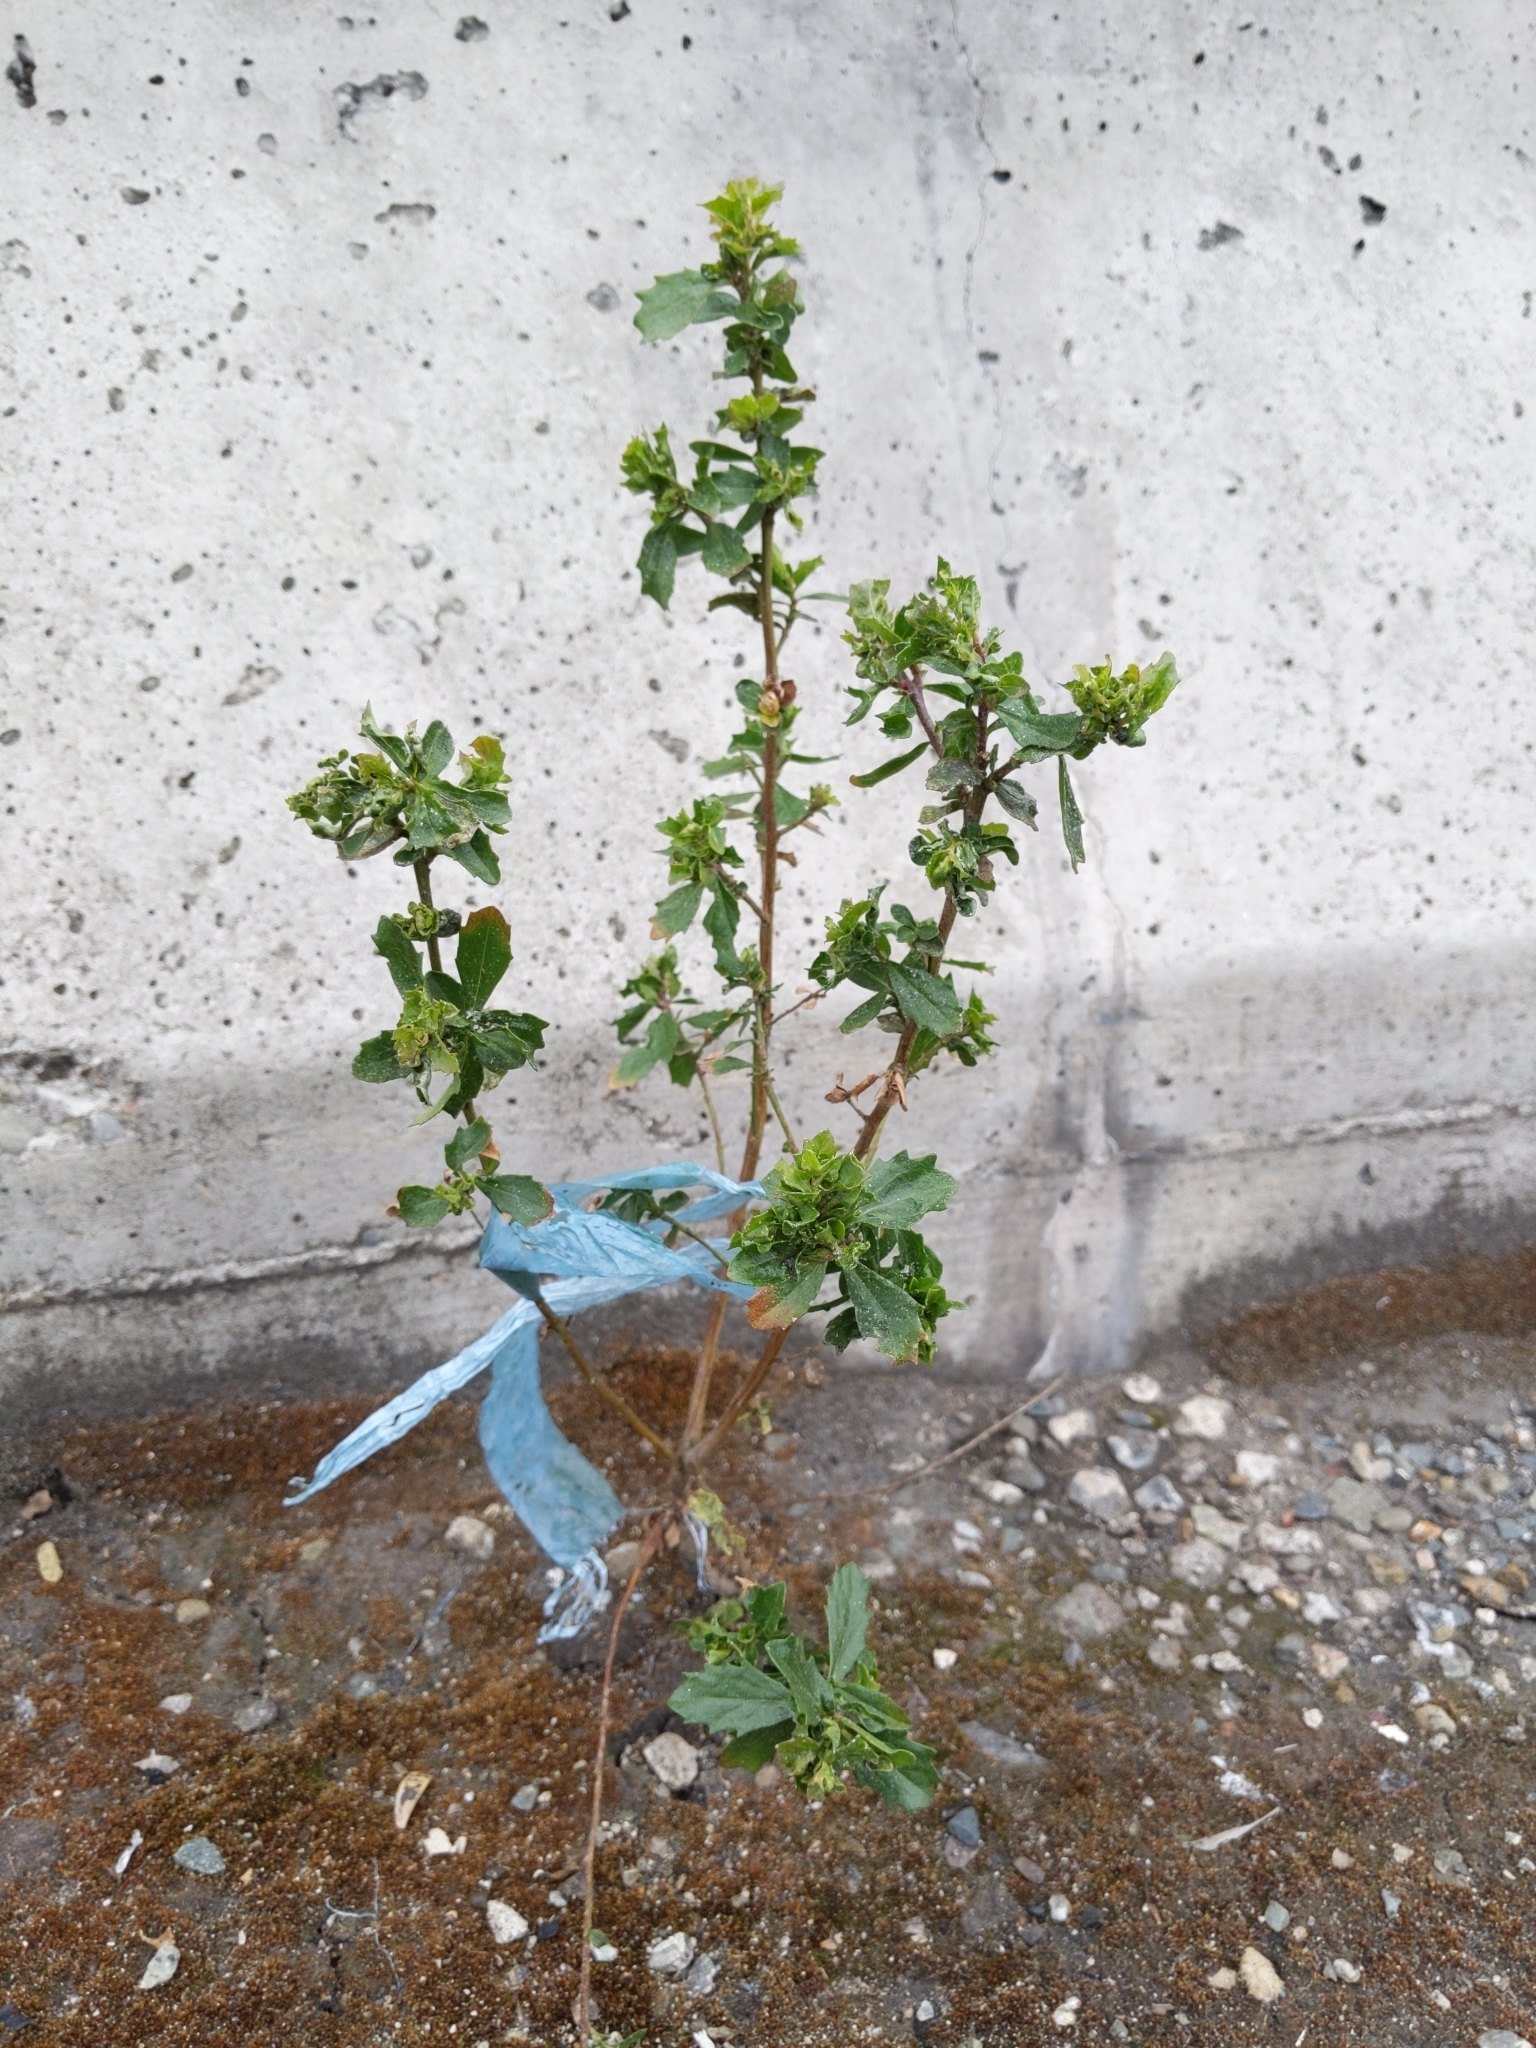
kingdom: Plantae
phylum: Tracheophyta
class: Magnoliopsida
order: Asterales
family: Asteraceae
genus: Baccharis
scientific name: Baccharis pilularis
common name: Coyotebrush
